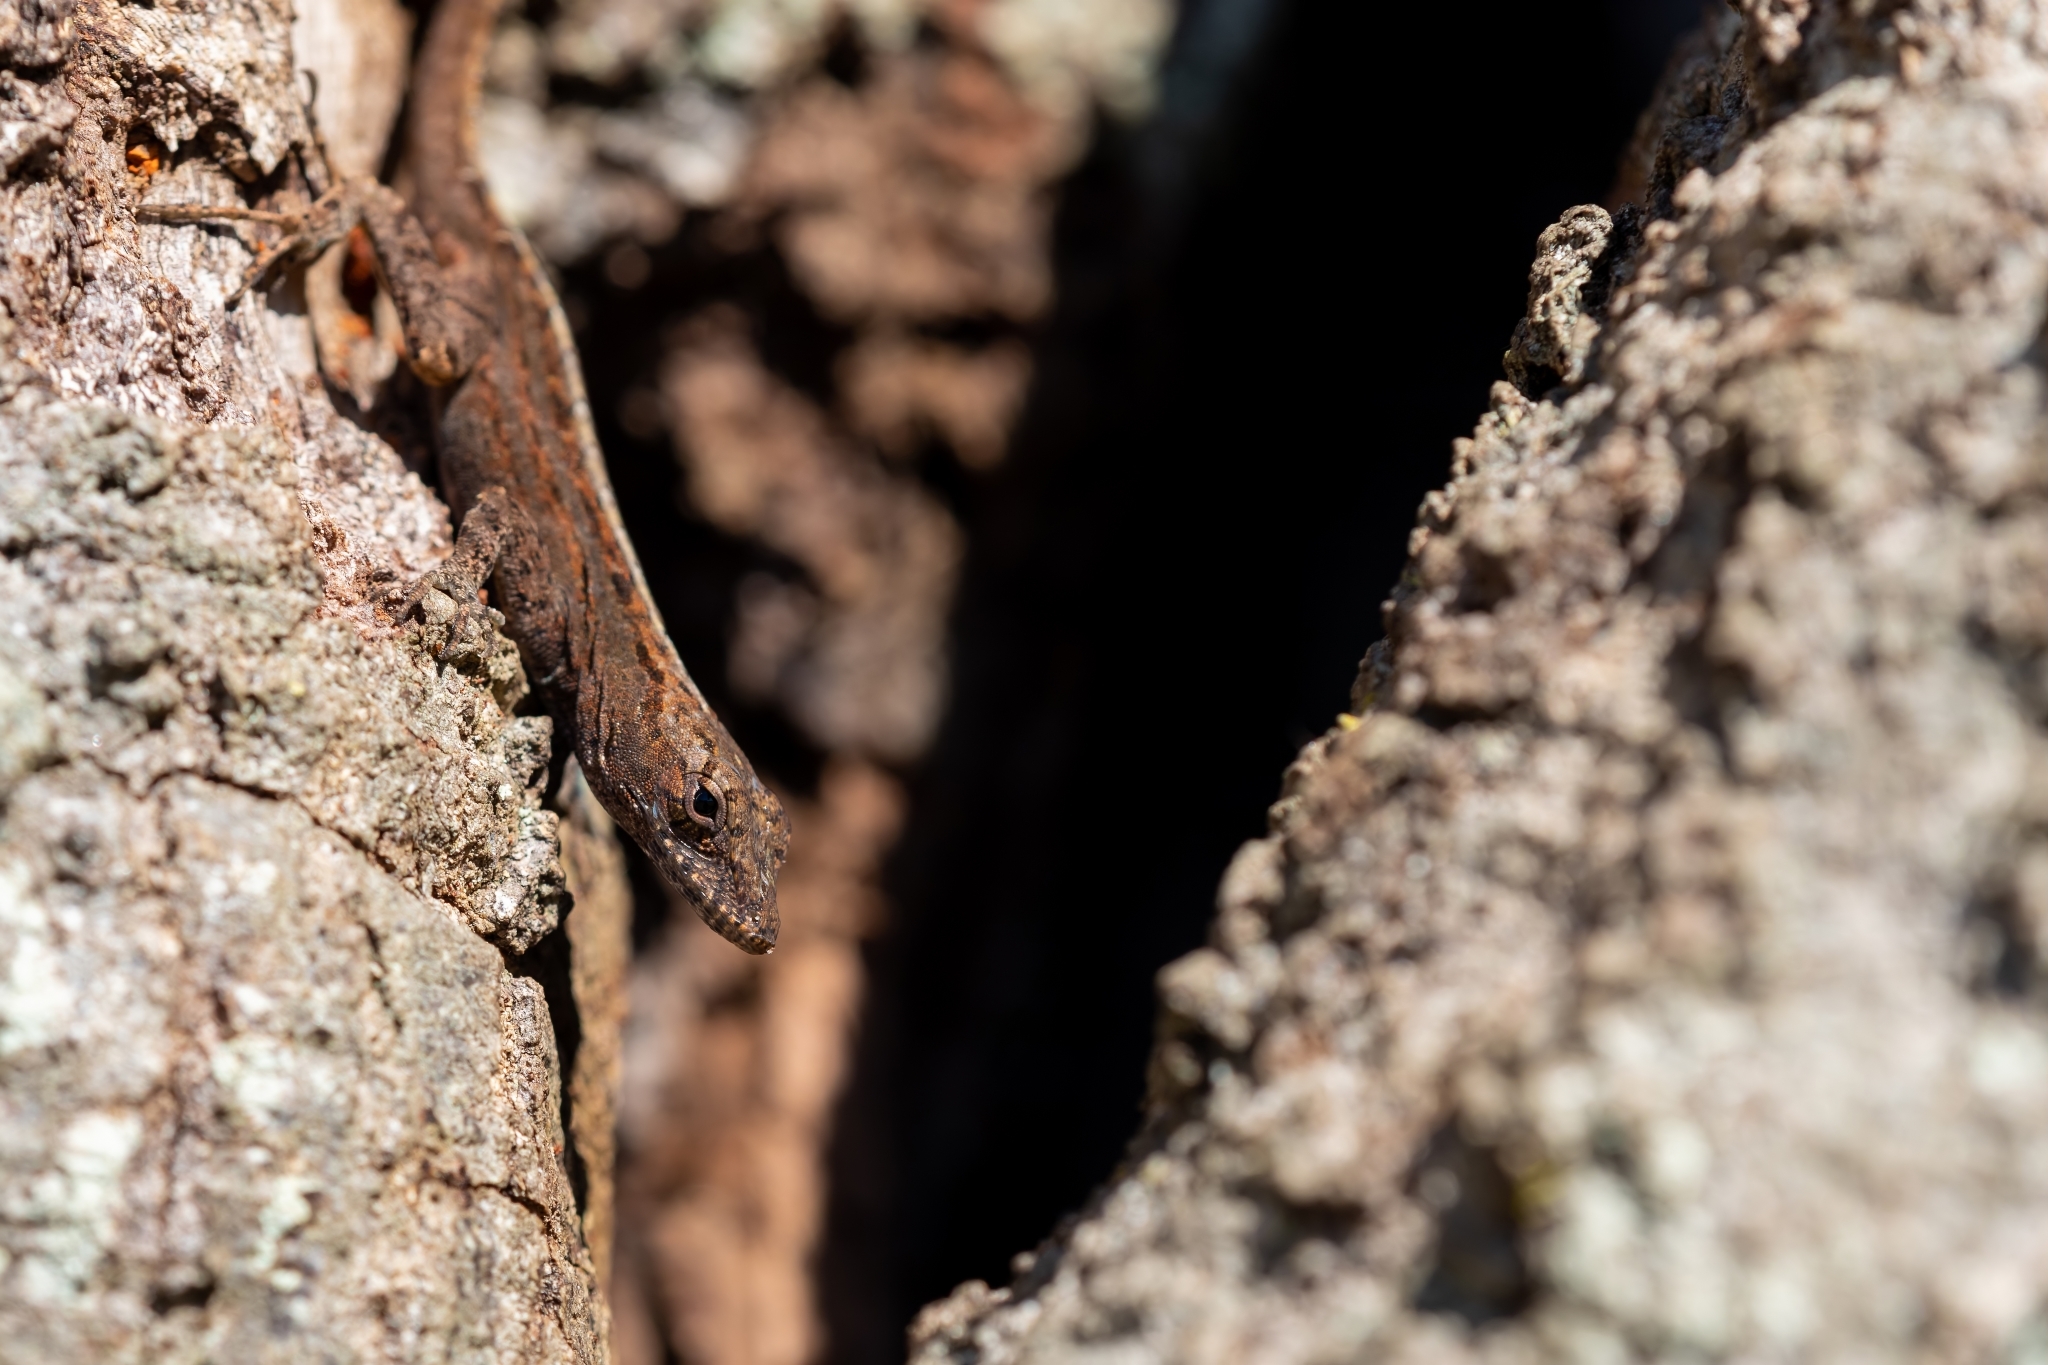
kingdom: Animalia
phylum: Chordata
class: Squamata
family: Dactyloidae
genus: Anolis
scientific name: Anolis sagrei
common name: Brown anole
